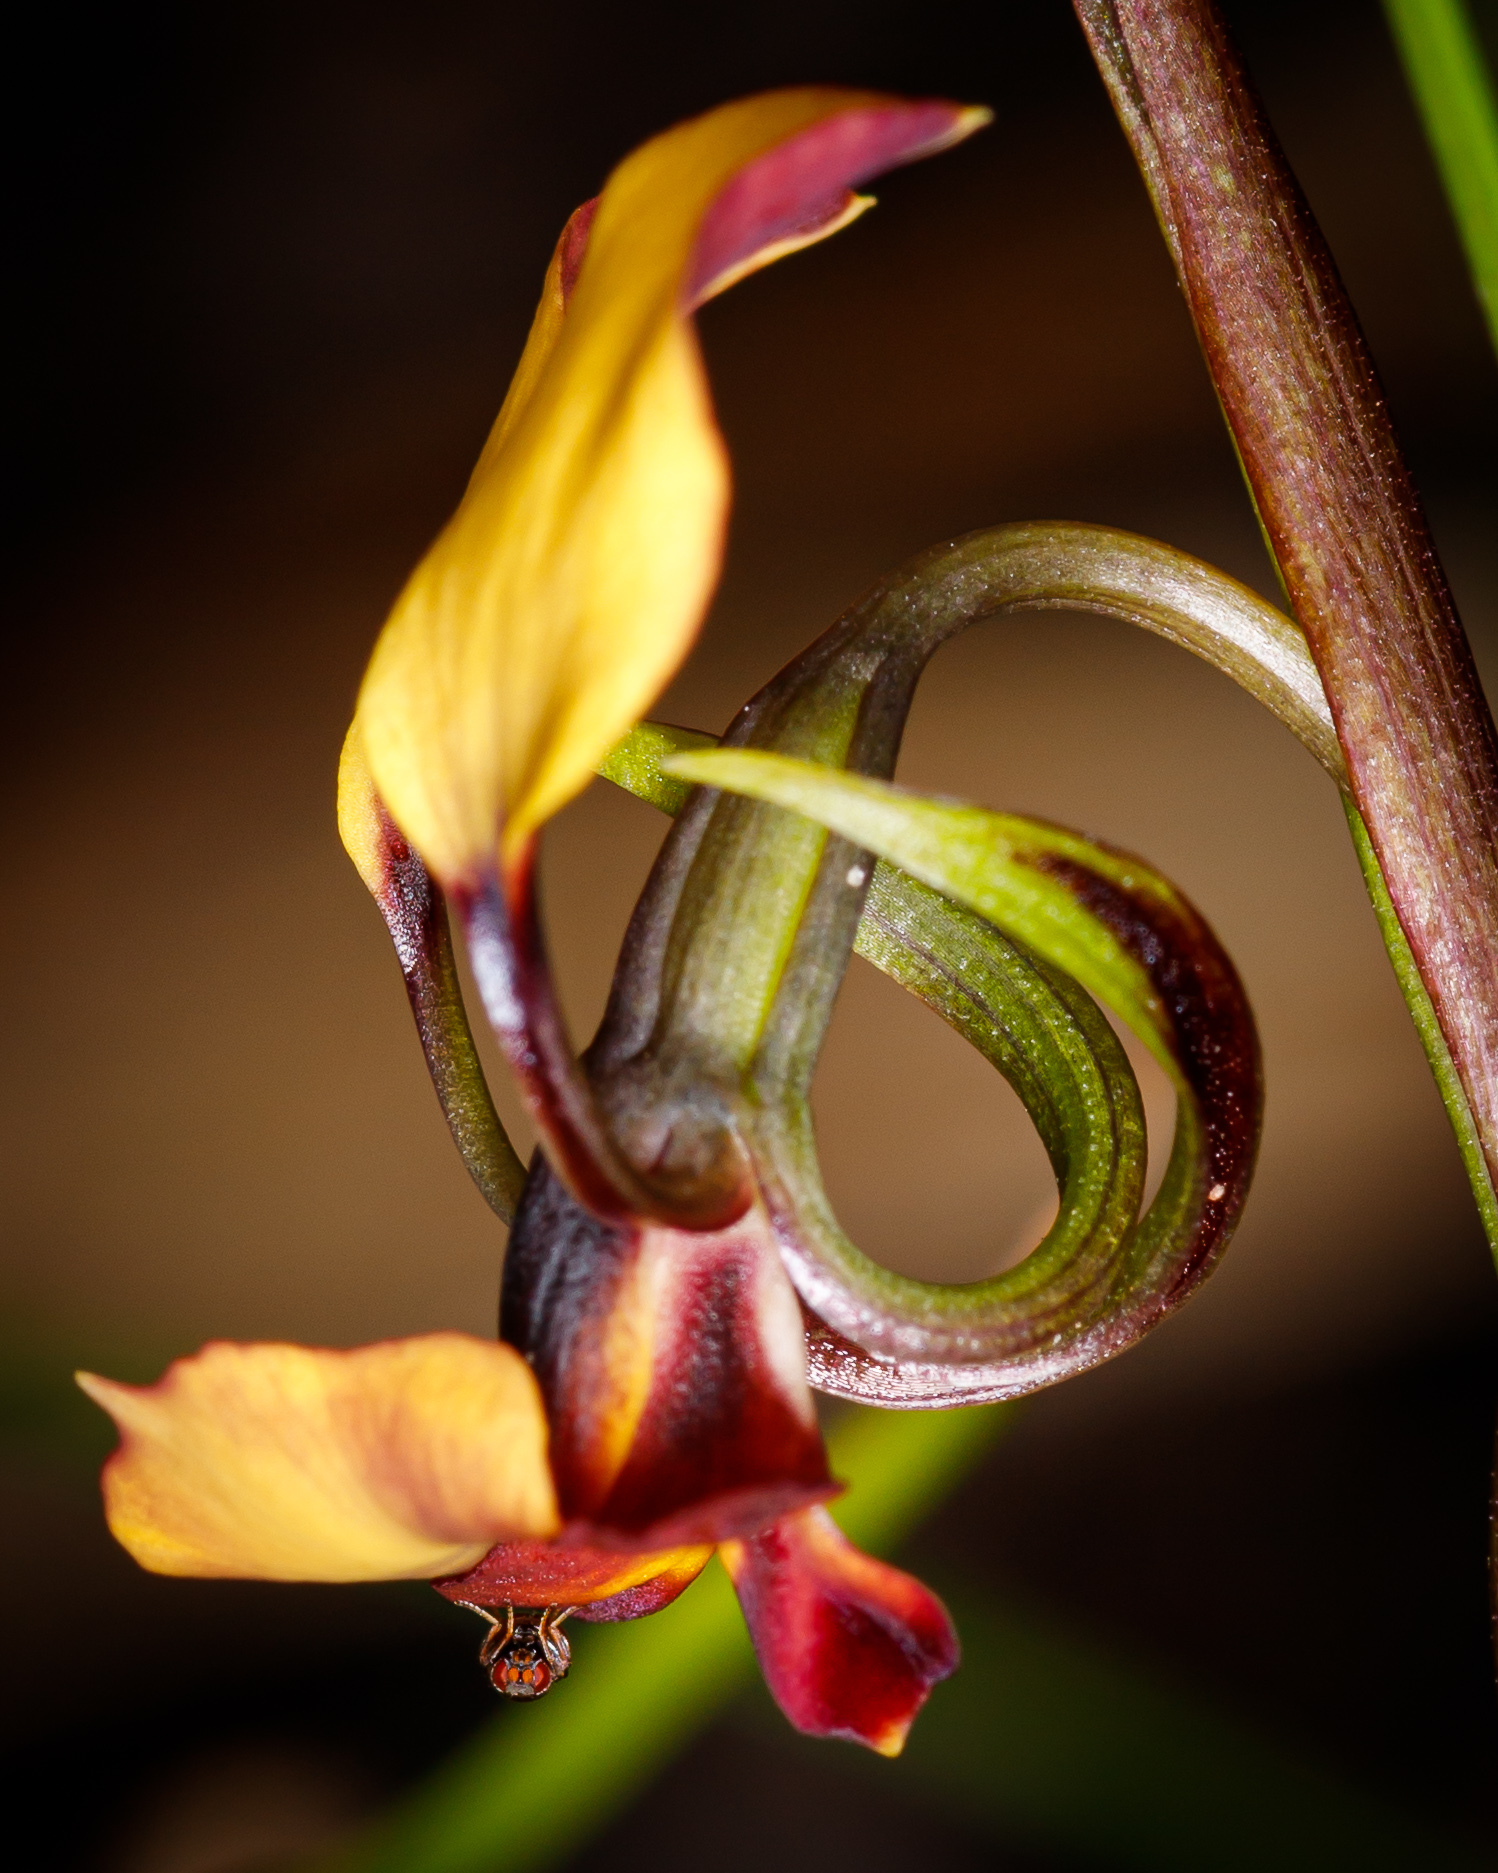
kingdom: Plantae
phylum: Tracheophyta
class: Liliopsida
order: Asparagales
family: Orchidaceae
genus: Diuris
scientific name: Diuris brachyscapa
